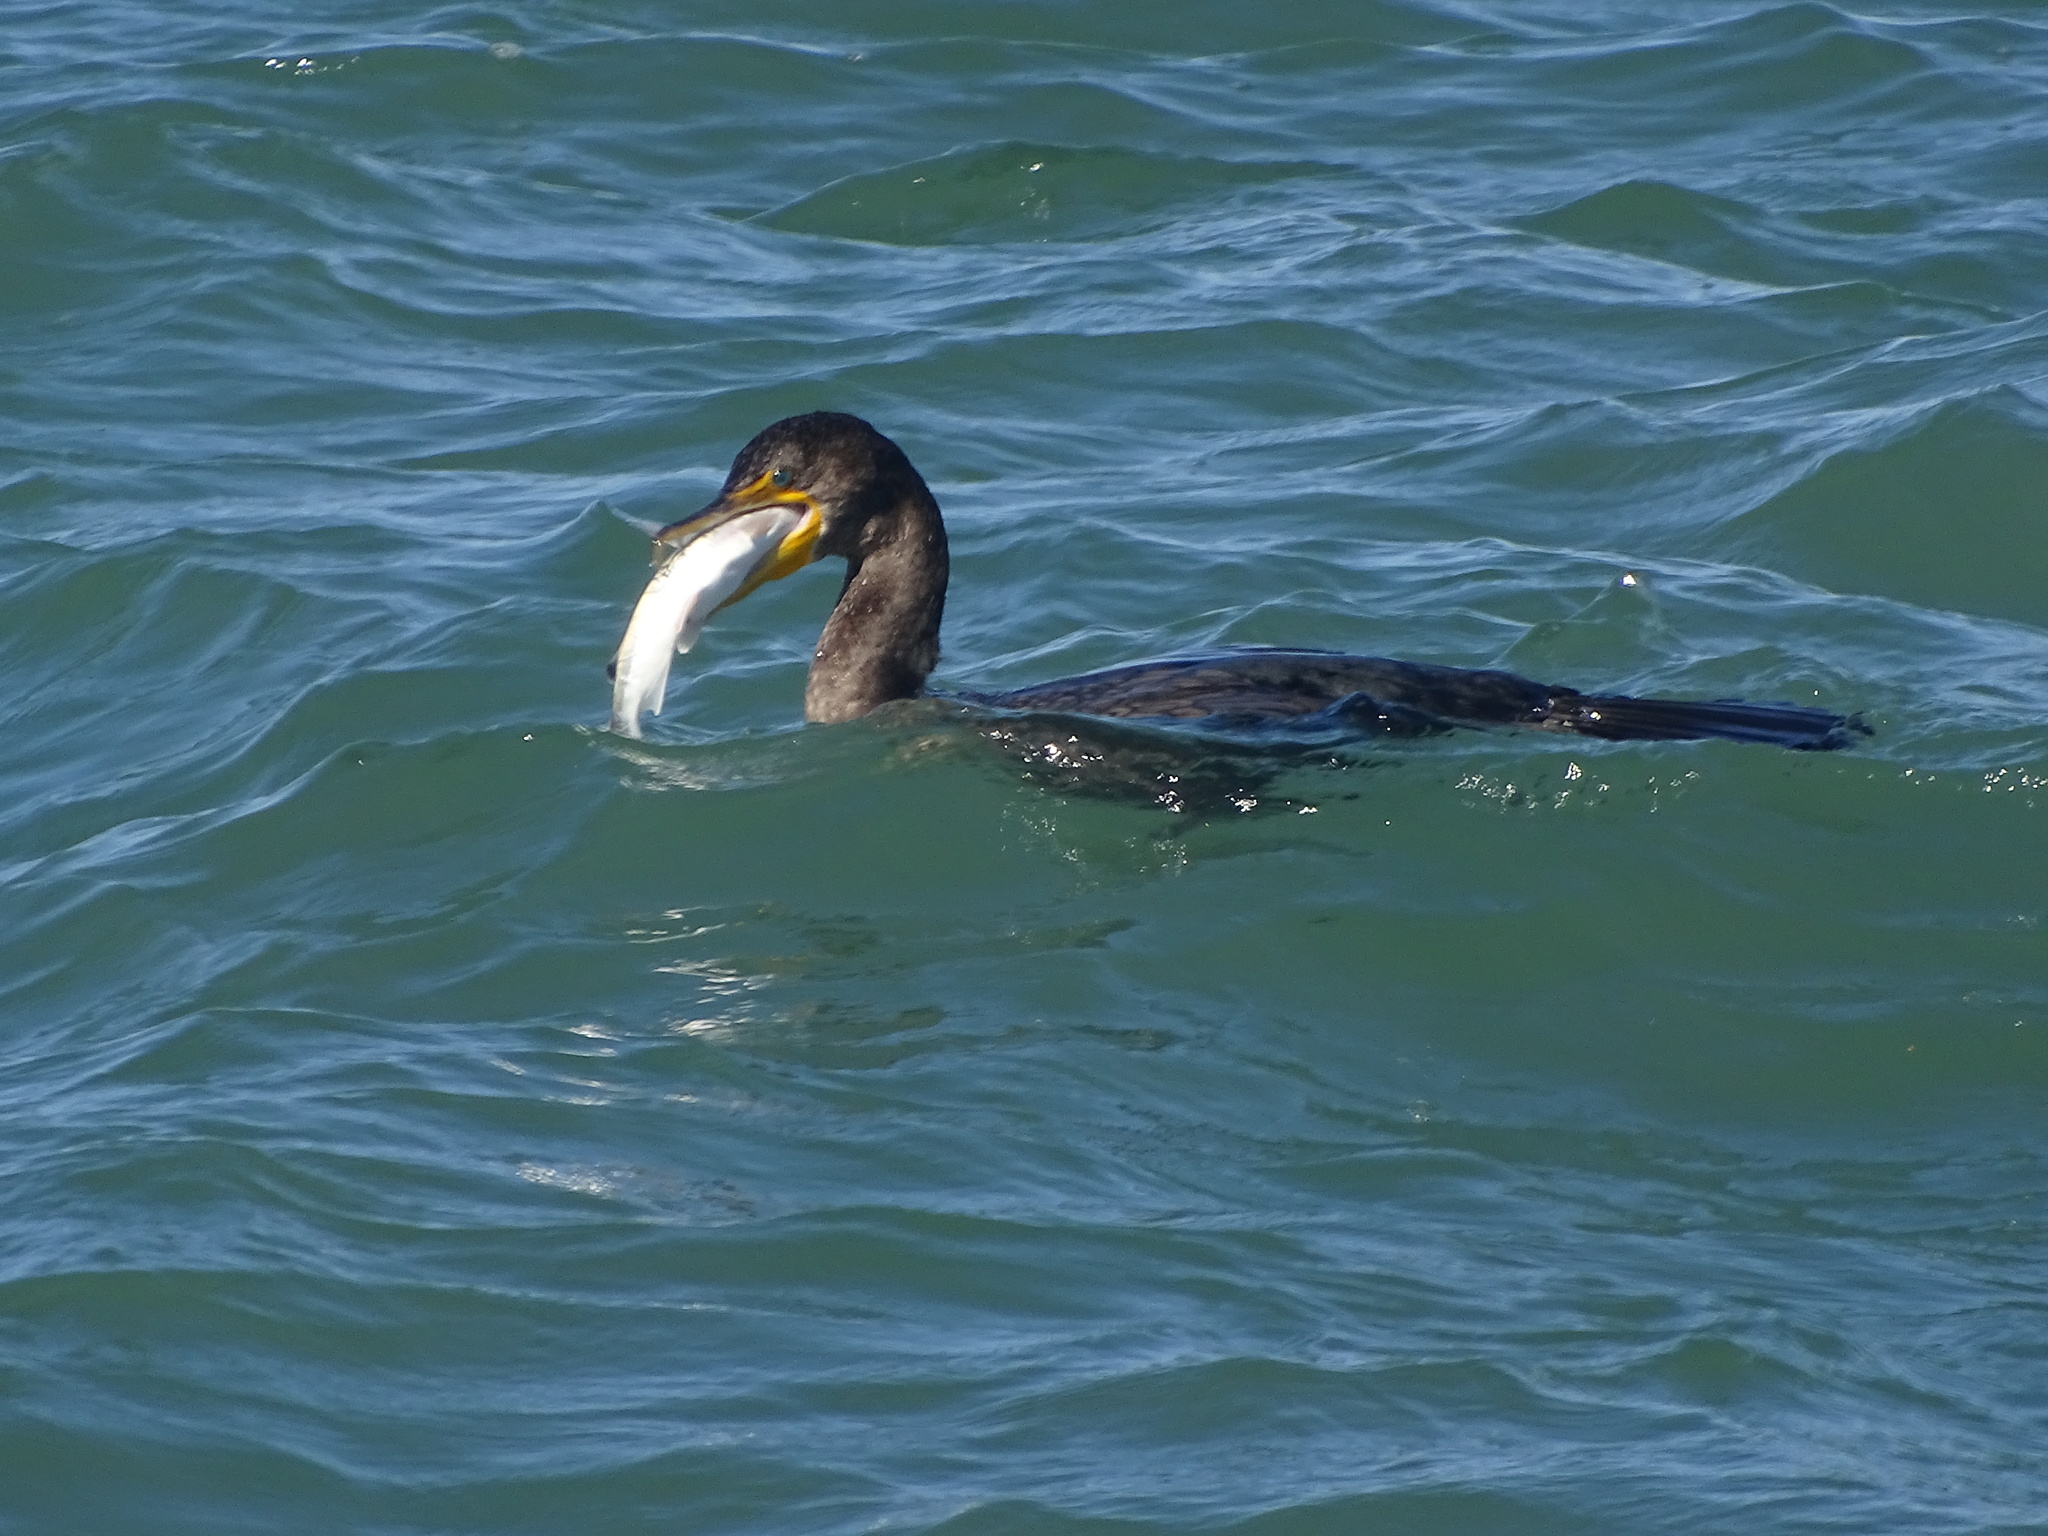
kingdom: Animalia
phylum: Chordata
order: Siluriformes
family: Ariidae
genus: Ariopsis
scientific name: Ariopsis felis
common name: Hardhead catfish
